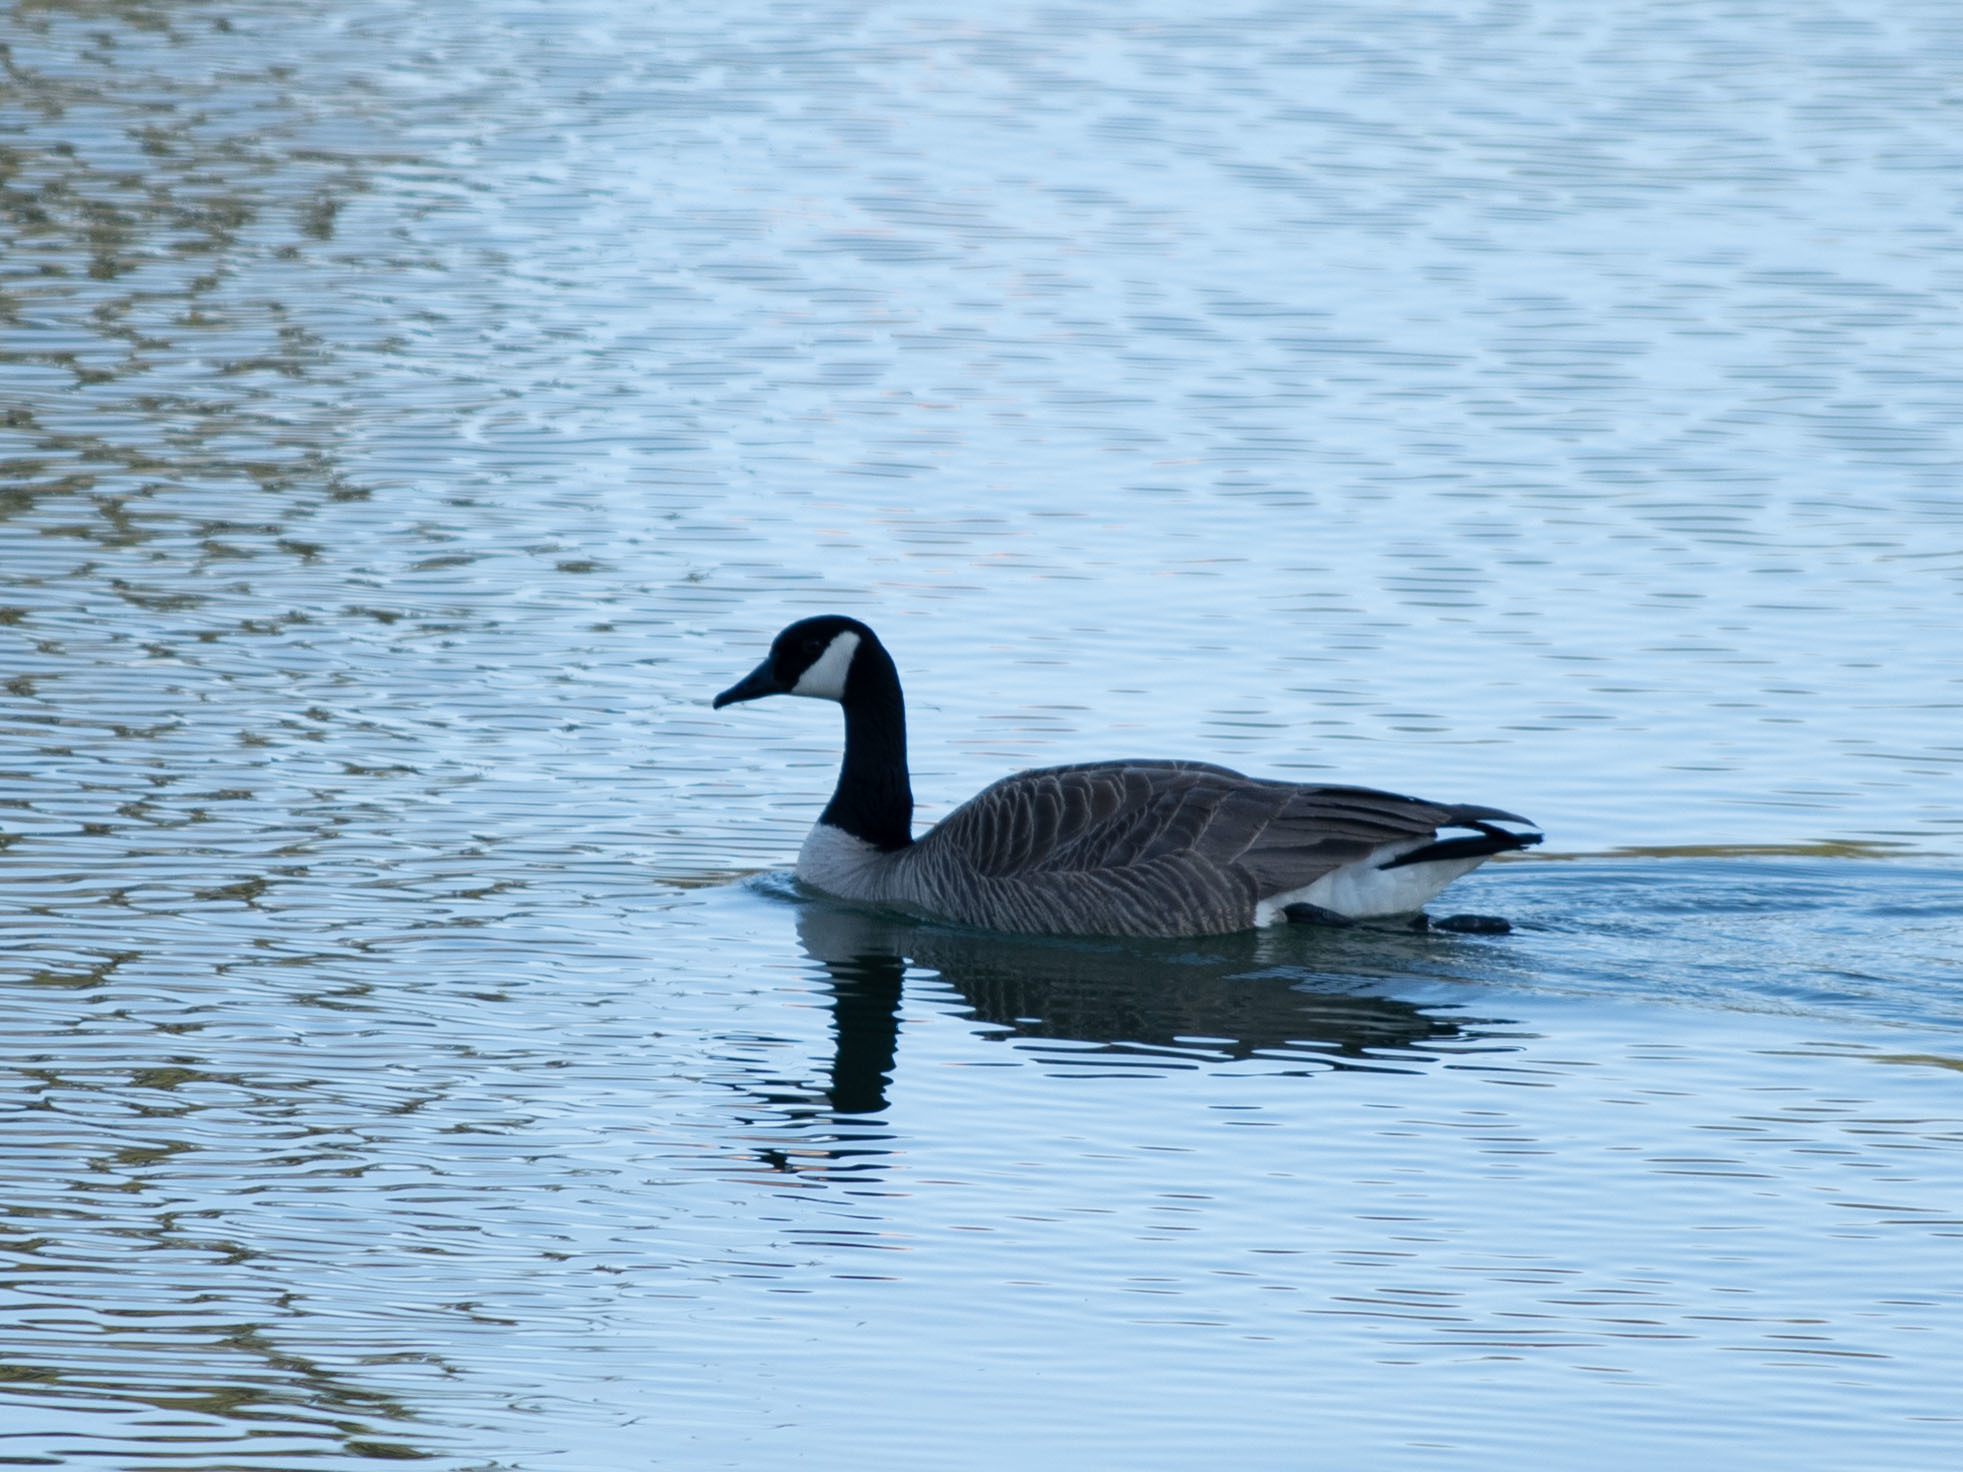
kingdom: Animalia
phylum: Chordata
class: Aves
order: Anseriformes
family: Anatidae
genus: Branta
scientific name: Branta canadensis
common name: Canada goose
